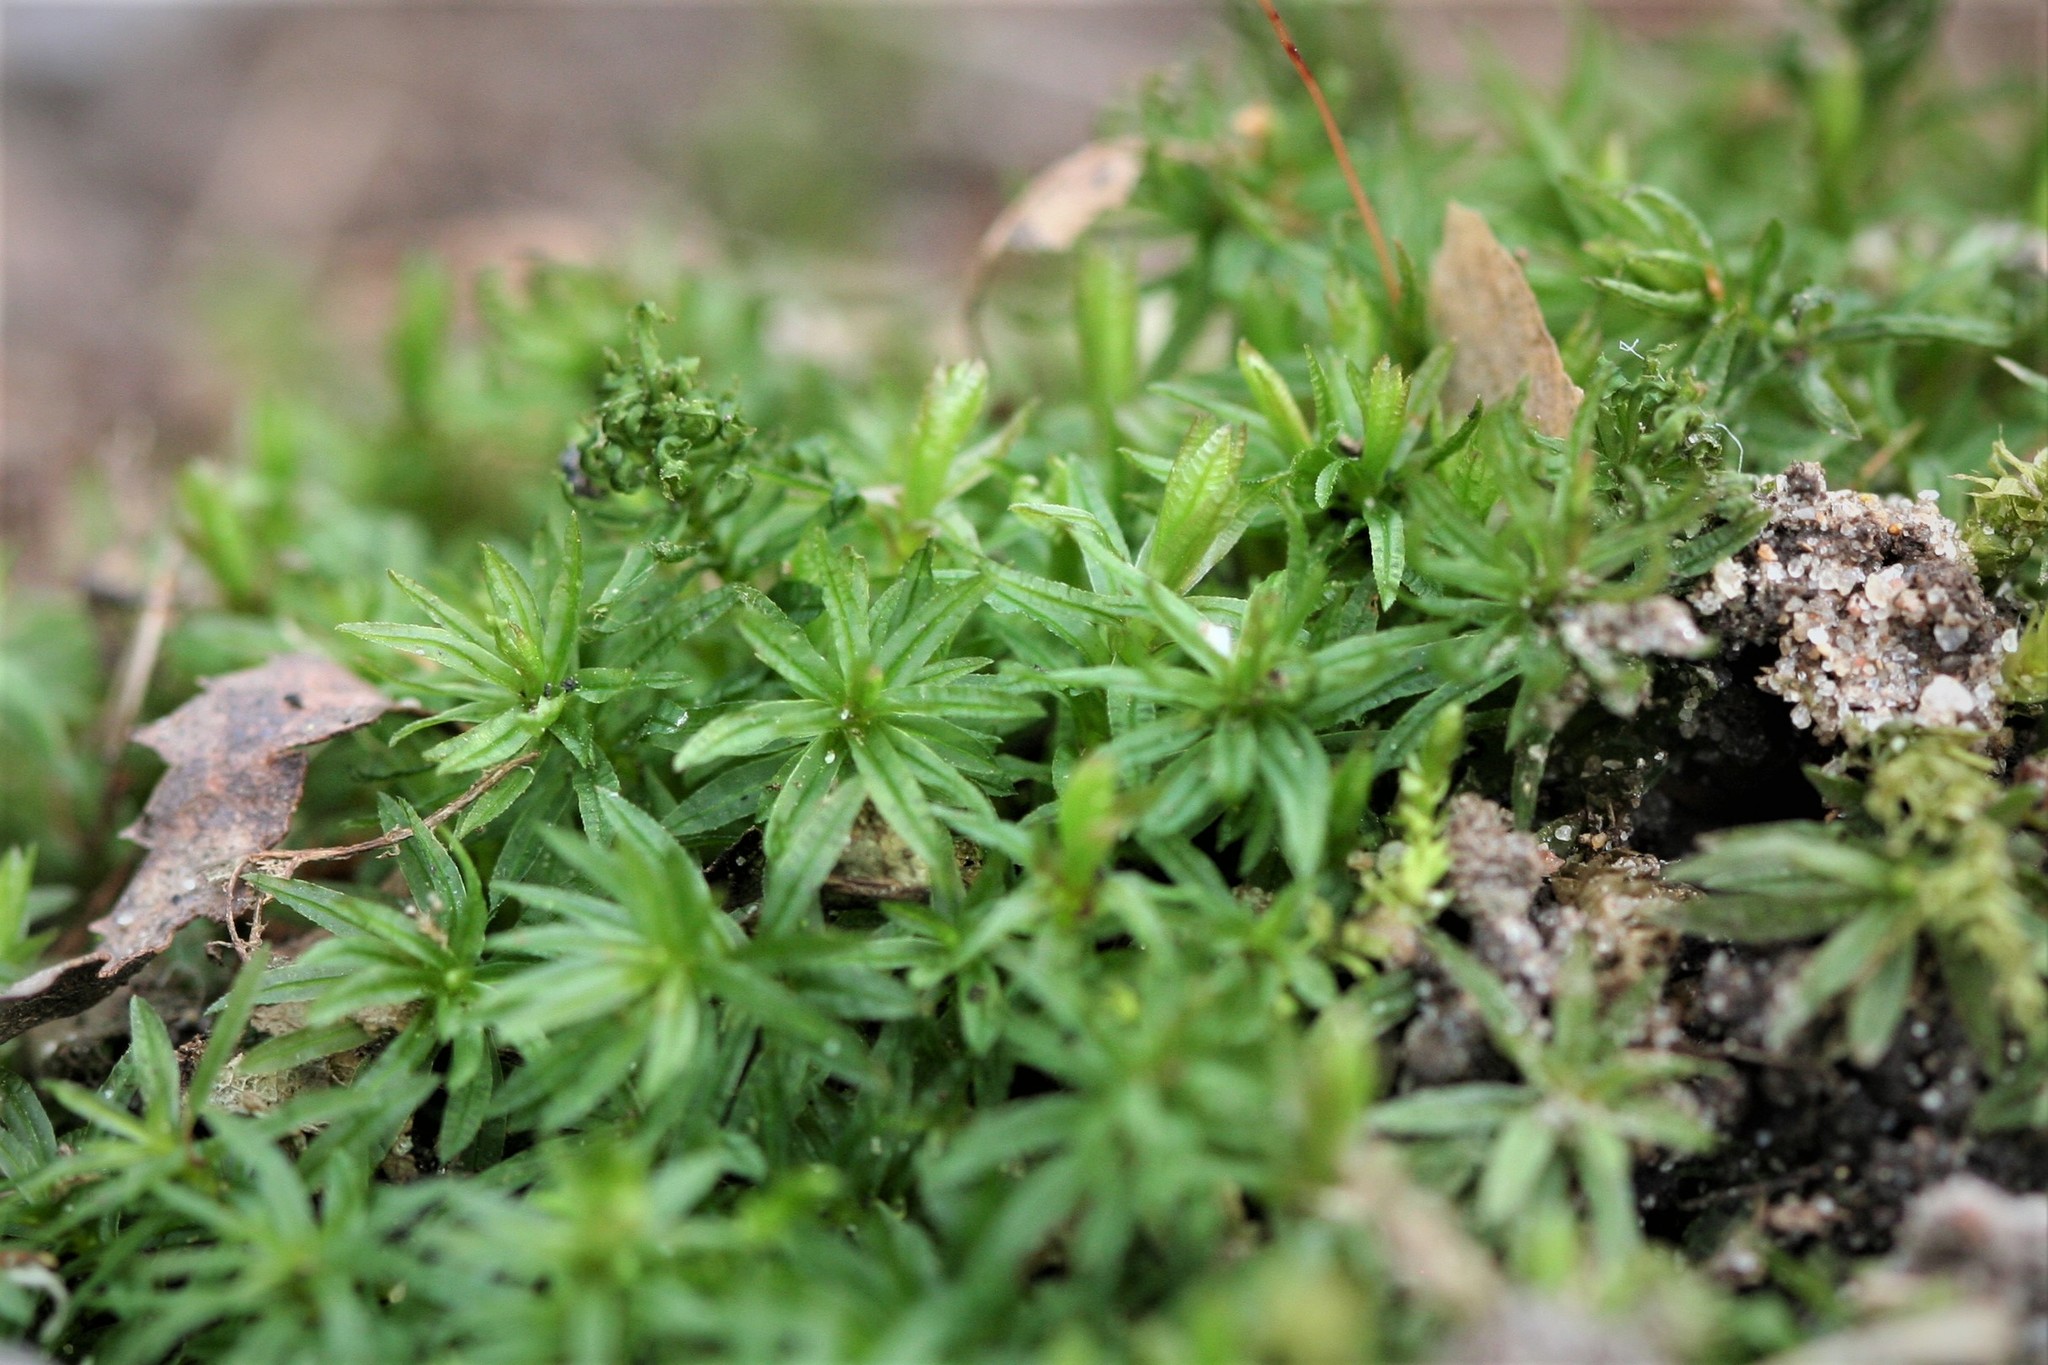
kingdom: Plantae
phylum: Bryophyta
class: Polytrichopsida
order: Polytrichales
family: Polytrichaceae
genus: Atrichum
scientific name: Atrichum undulatum
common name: Common smoothcap
